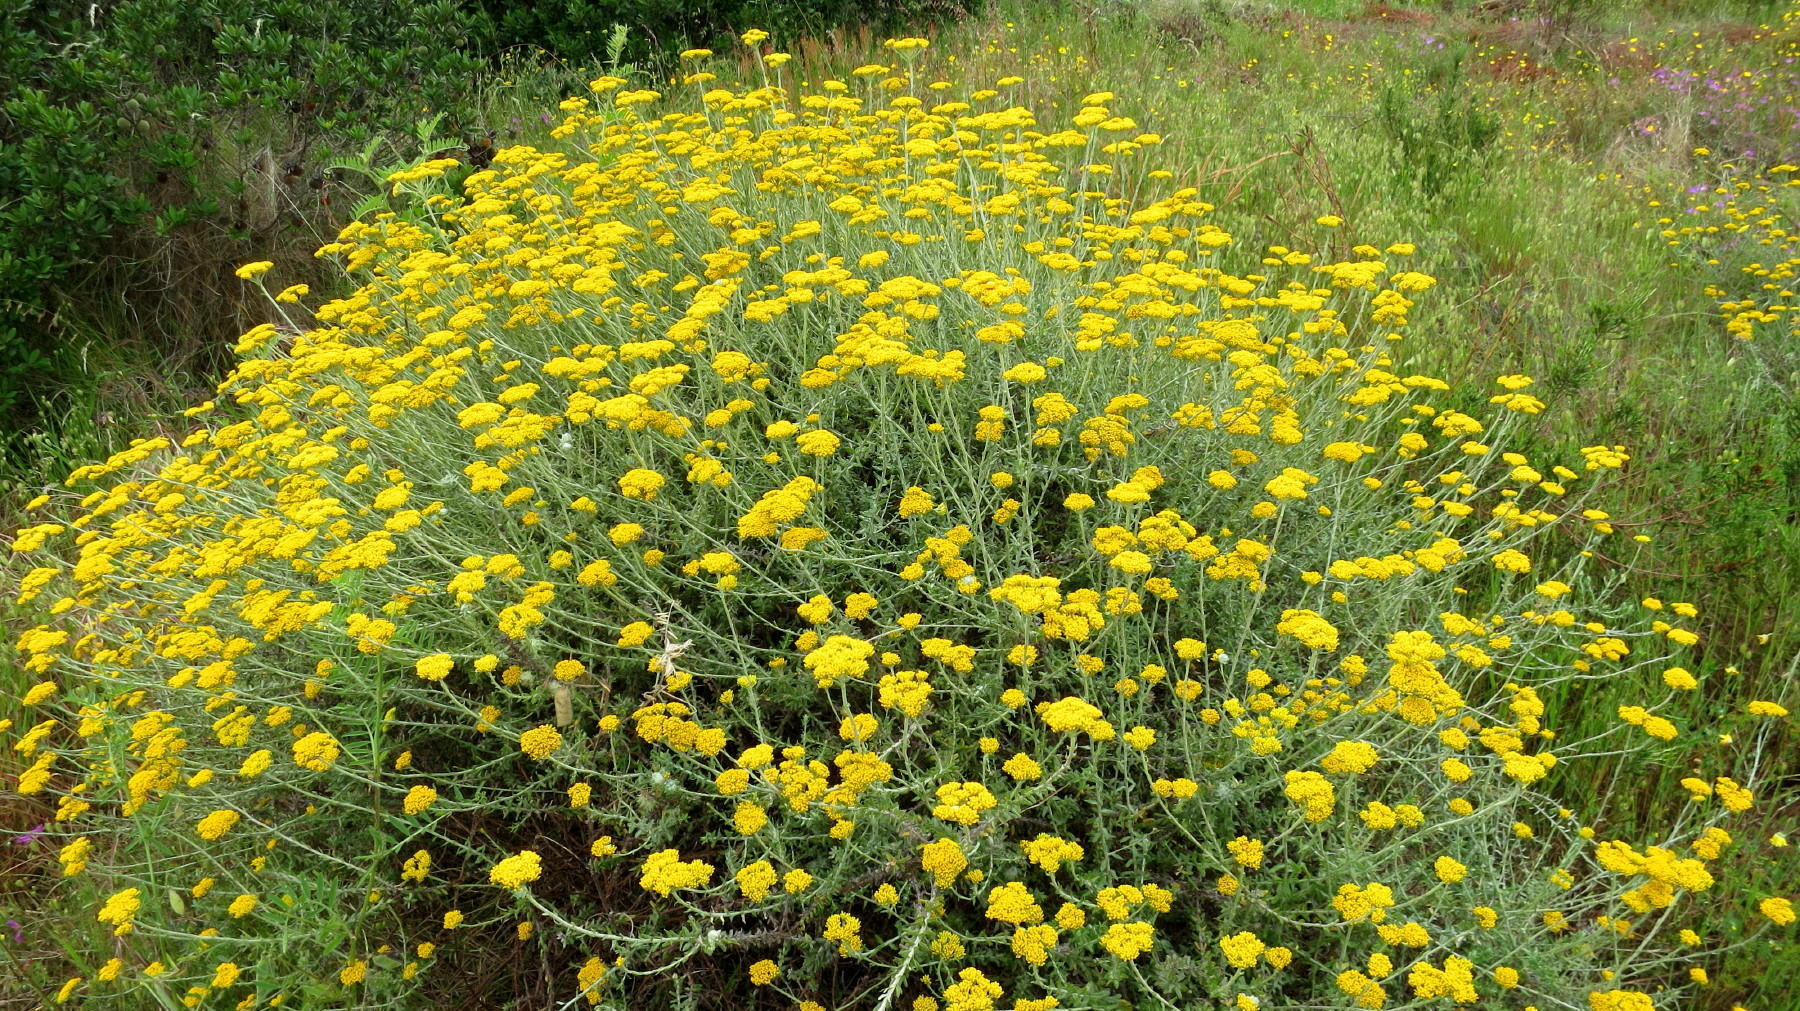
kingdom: Plantae
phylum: Tracheophyta
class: Magnoliopsida
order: Asterales
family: Asteraceae
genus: Helichrysum
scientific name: Helichrysum cymosum
